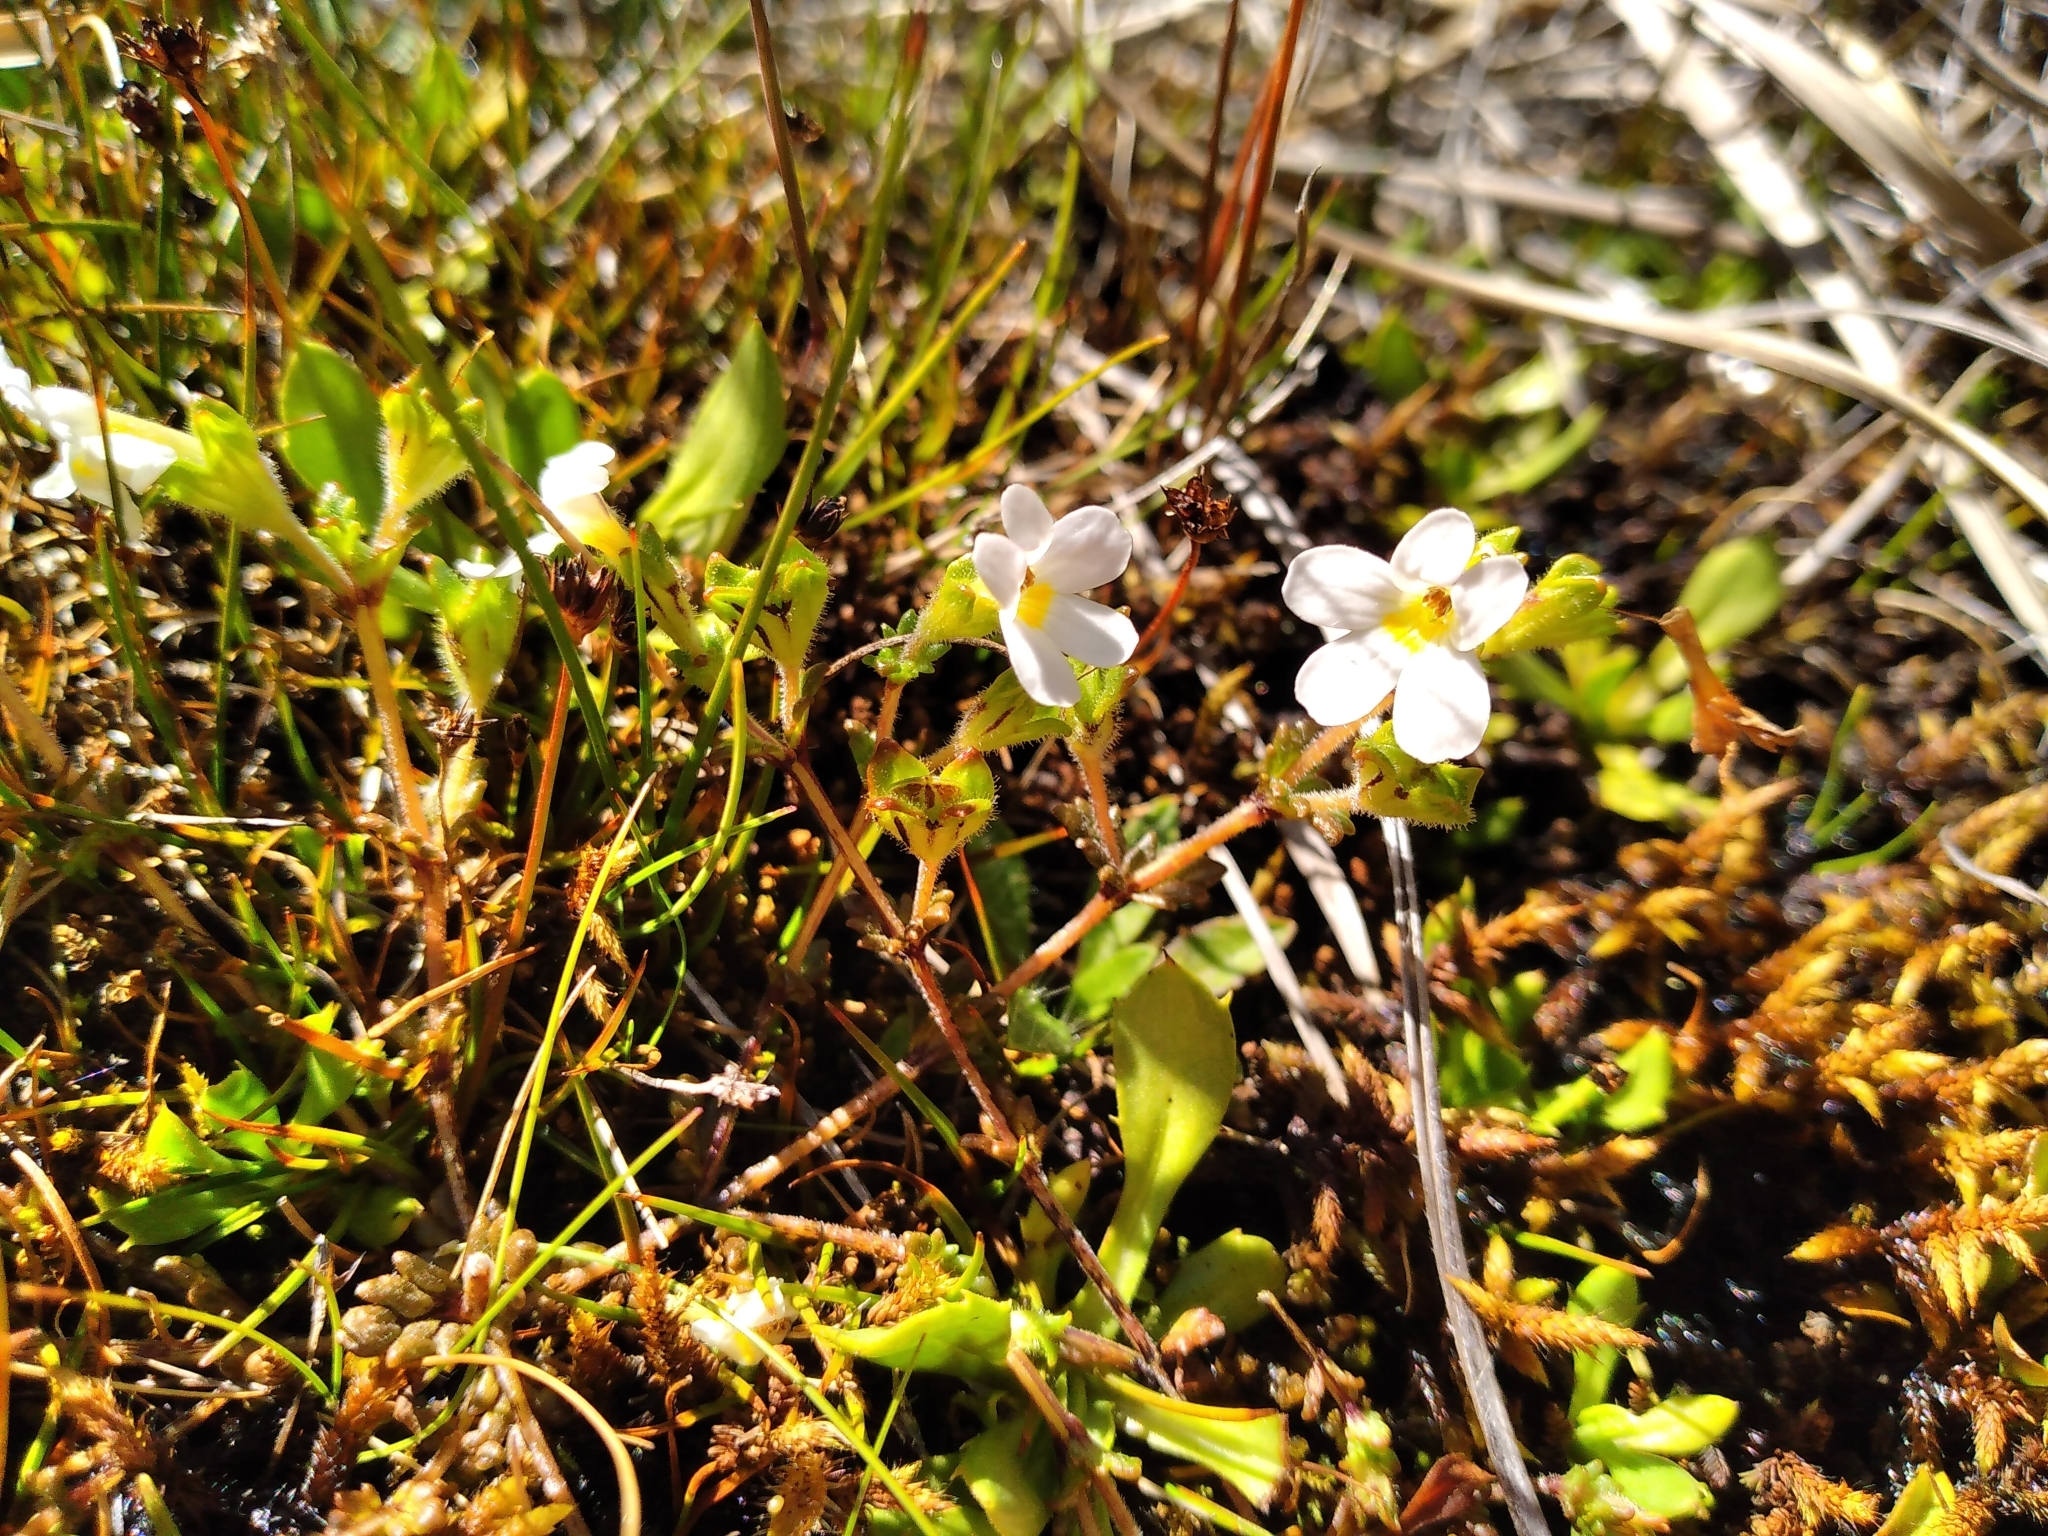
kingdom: Plantae
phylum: Tracheophyta
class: Magnoliopsida
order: Lamiales
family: Orobanchaceae
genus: Euphrasia
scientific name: Euphrasia australis
